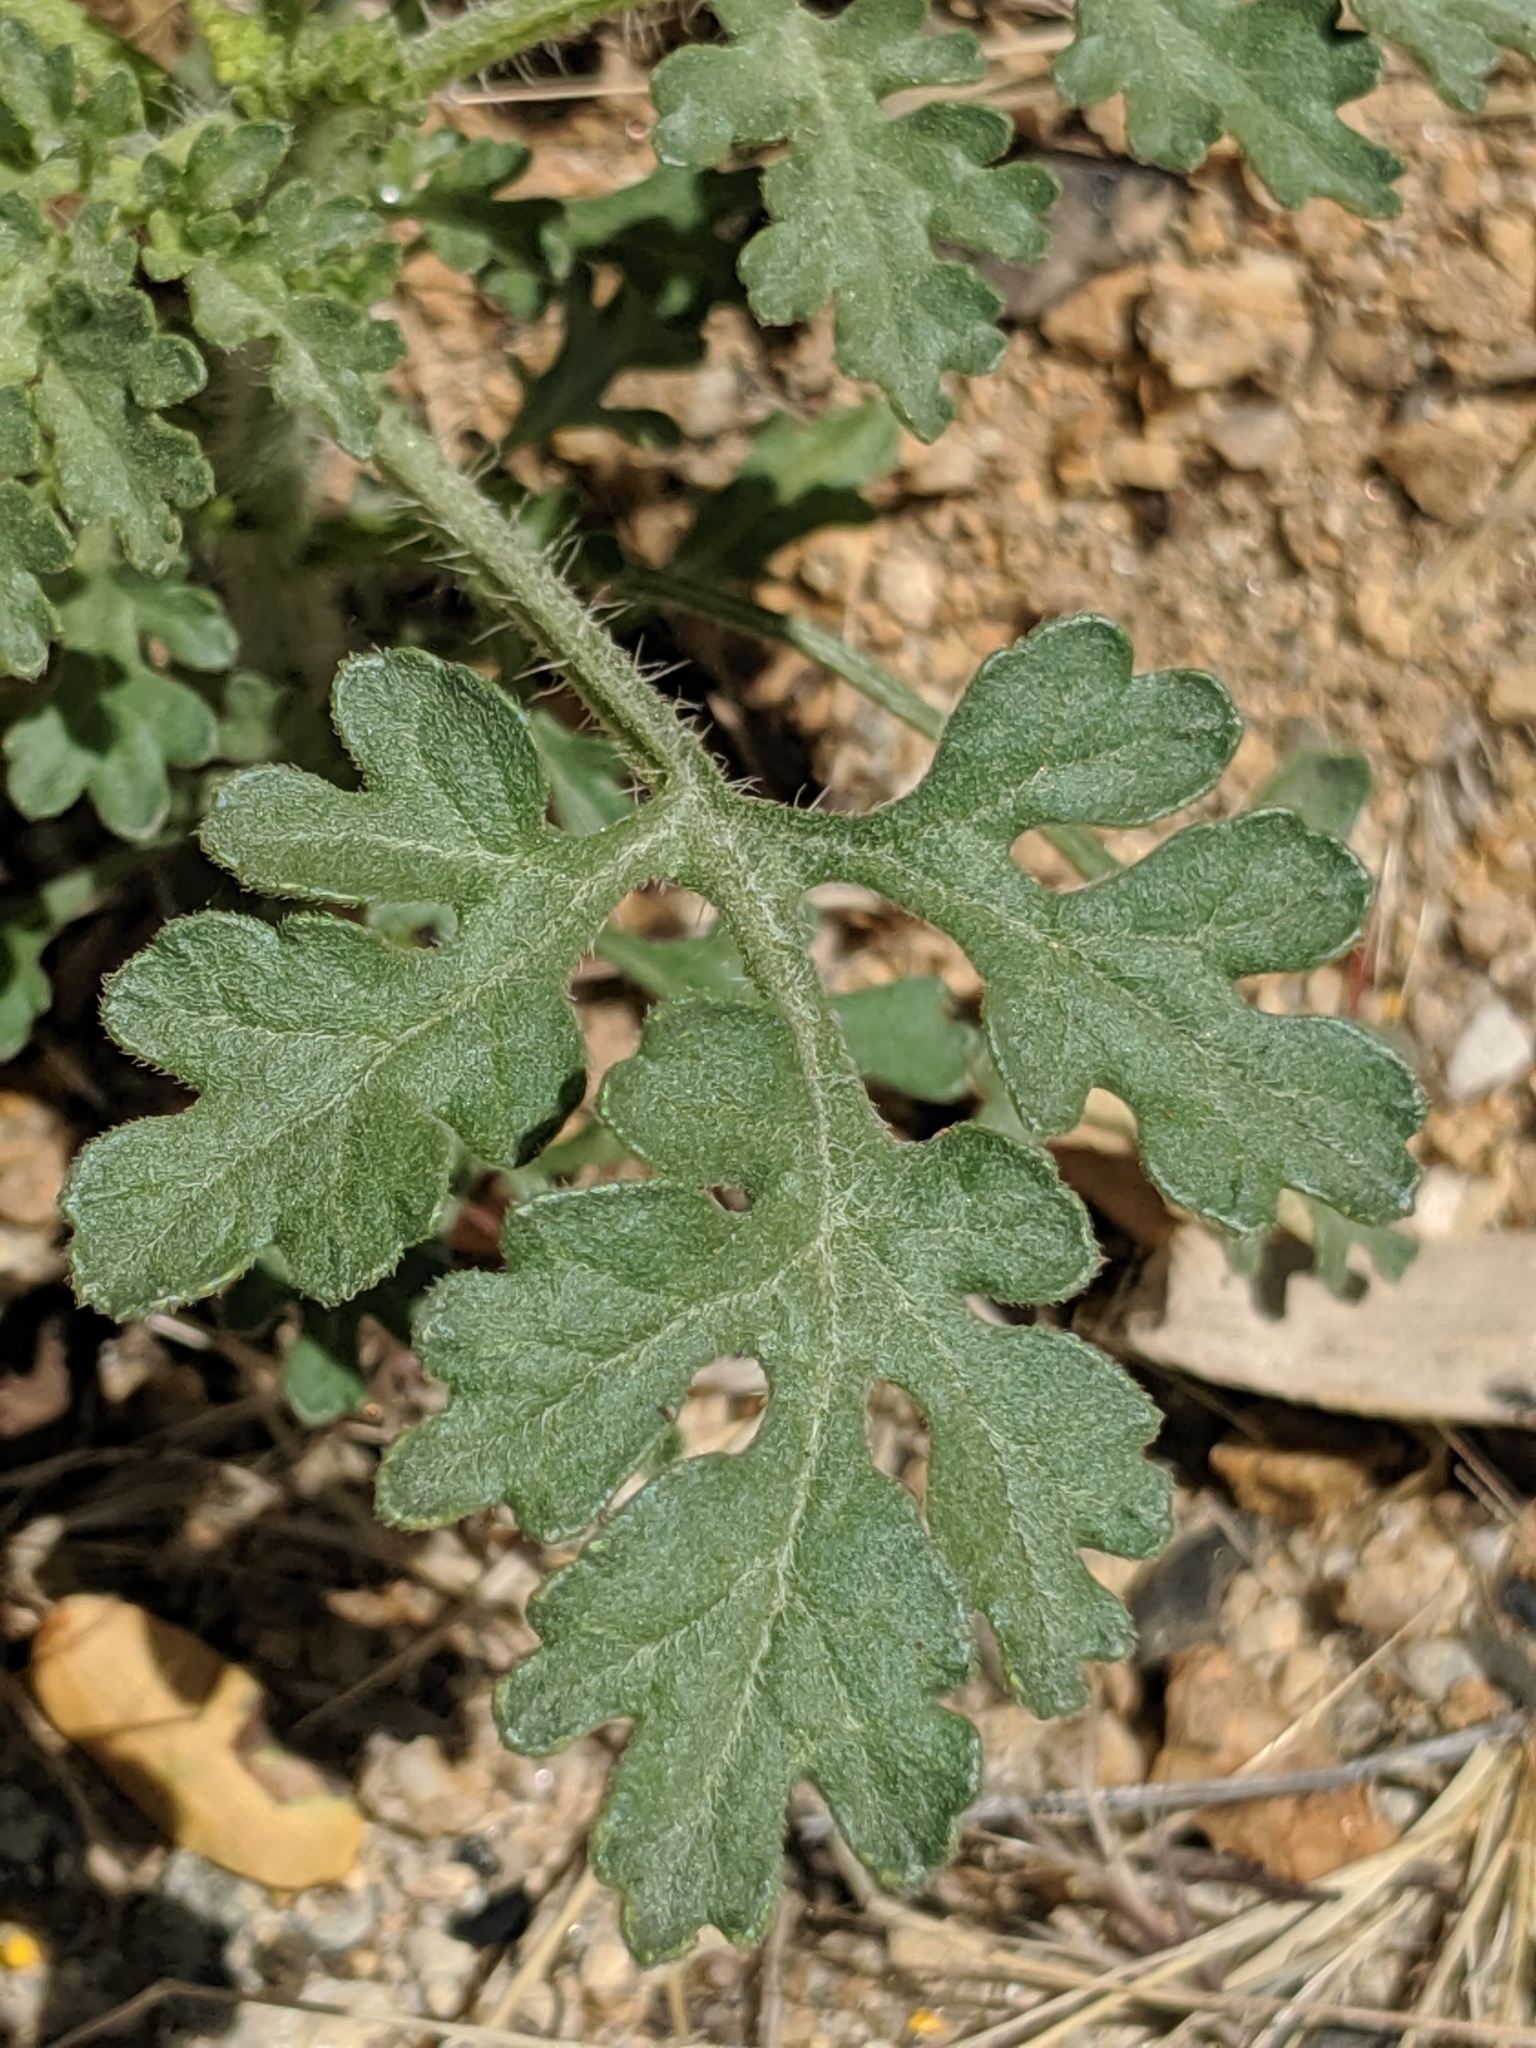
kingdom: Plantae
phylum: Tracheophyta
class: Magnoliopsida
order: Asterales
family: Asteraceae
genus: Ambrosia
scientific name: Ambrosia acanthicarpa
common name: Hooker's bur ragweed
